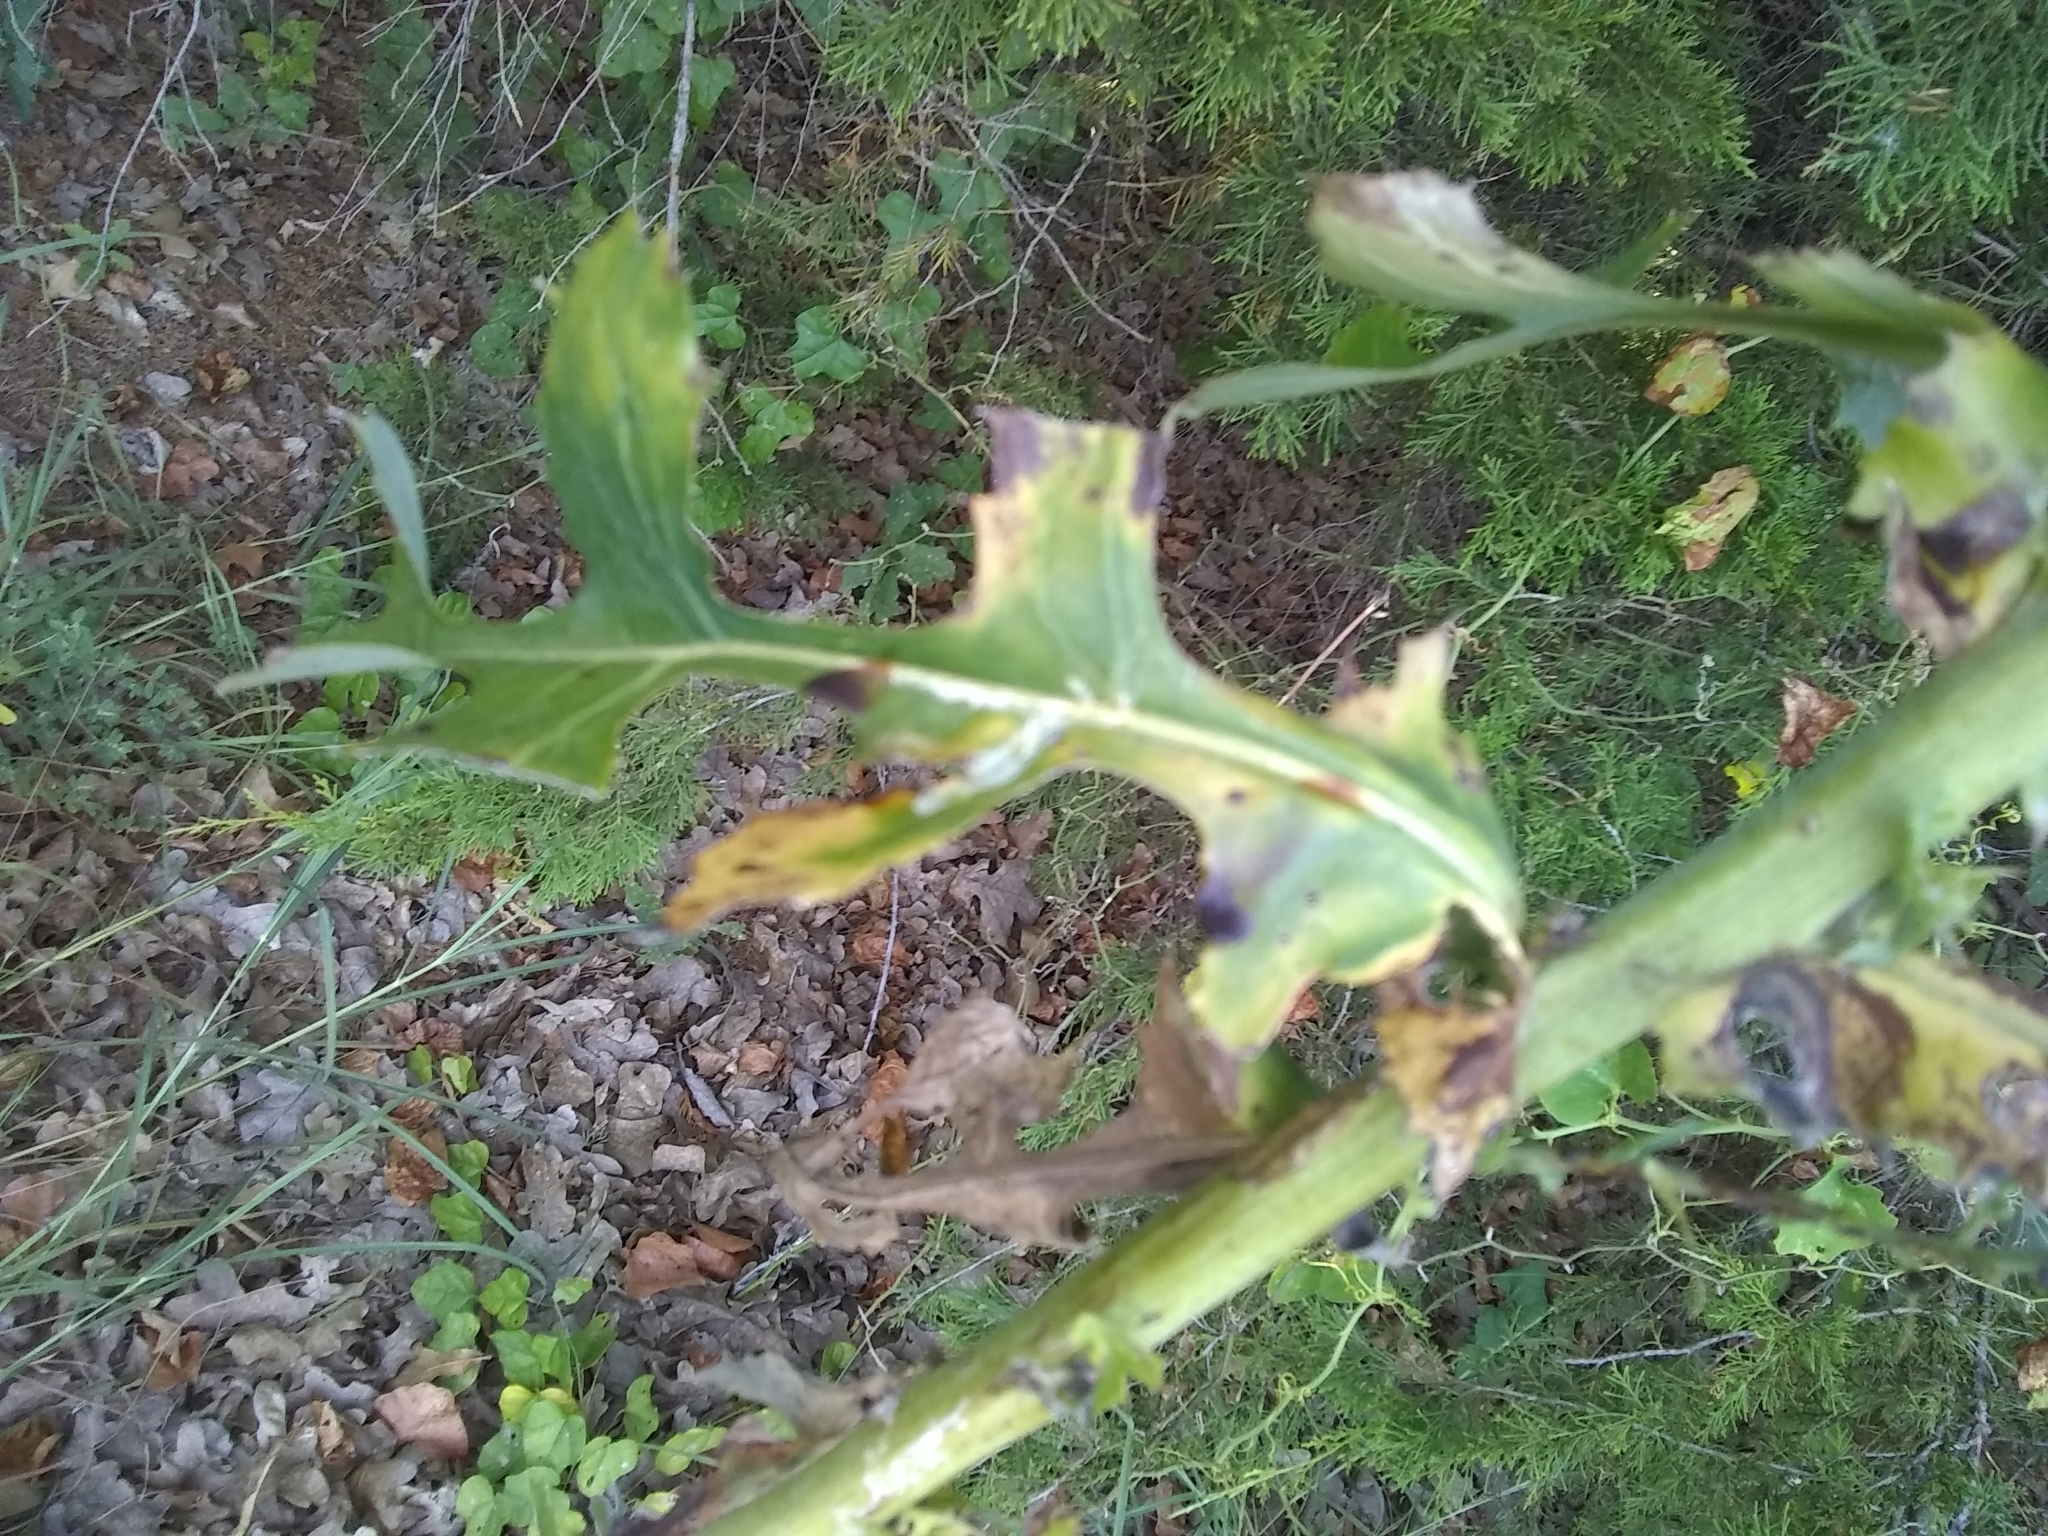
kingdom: Plantae
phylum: Tracheophyta
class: Magnoliopsida
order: Asterales
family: Asteraceae
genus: Lactuca
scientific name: Lactuca serriola
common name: Prickly lettuce
